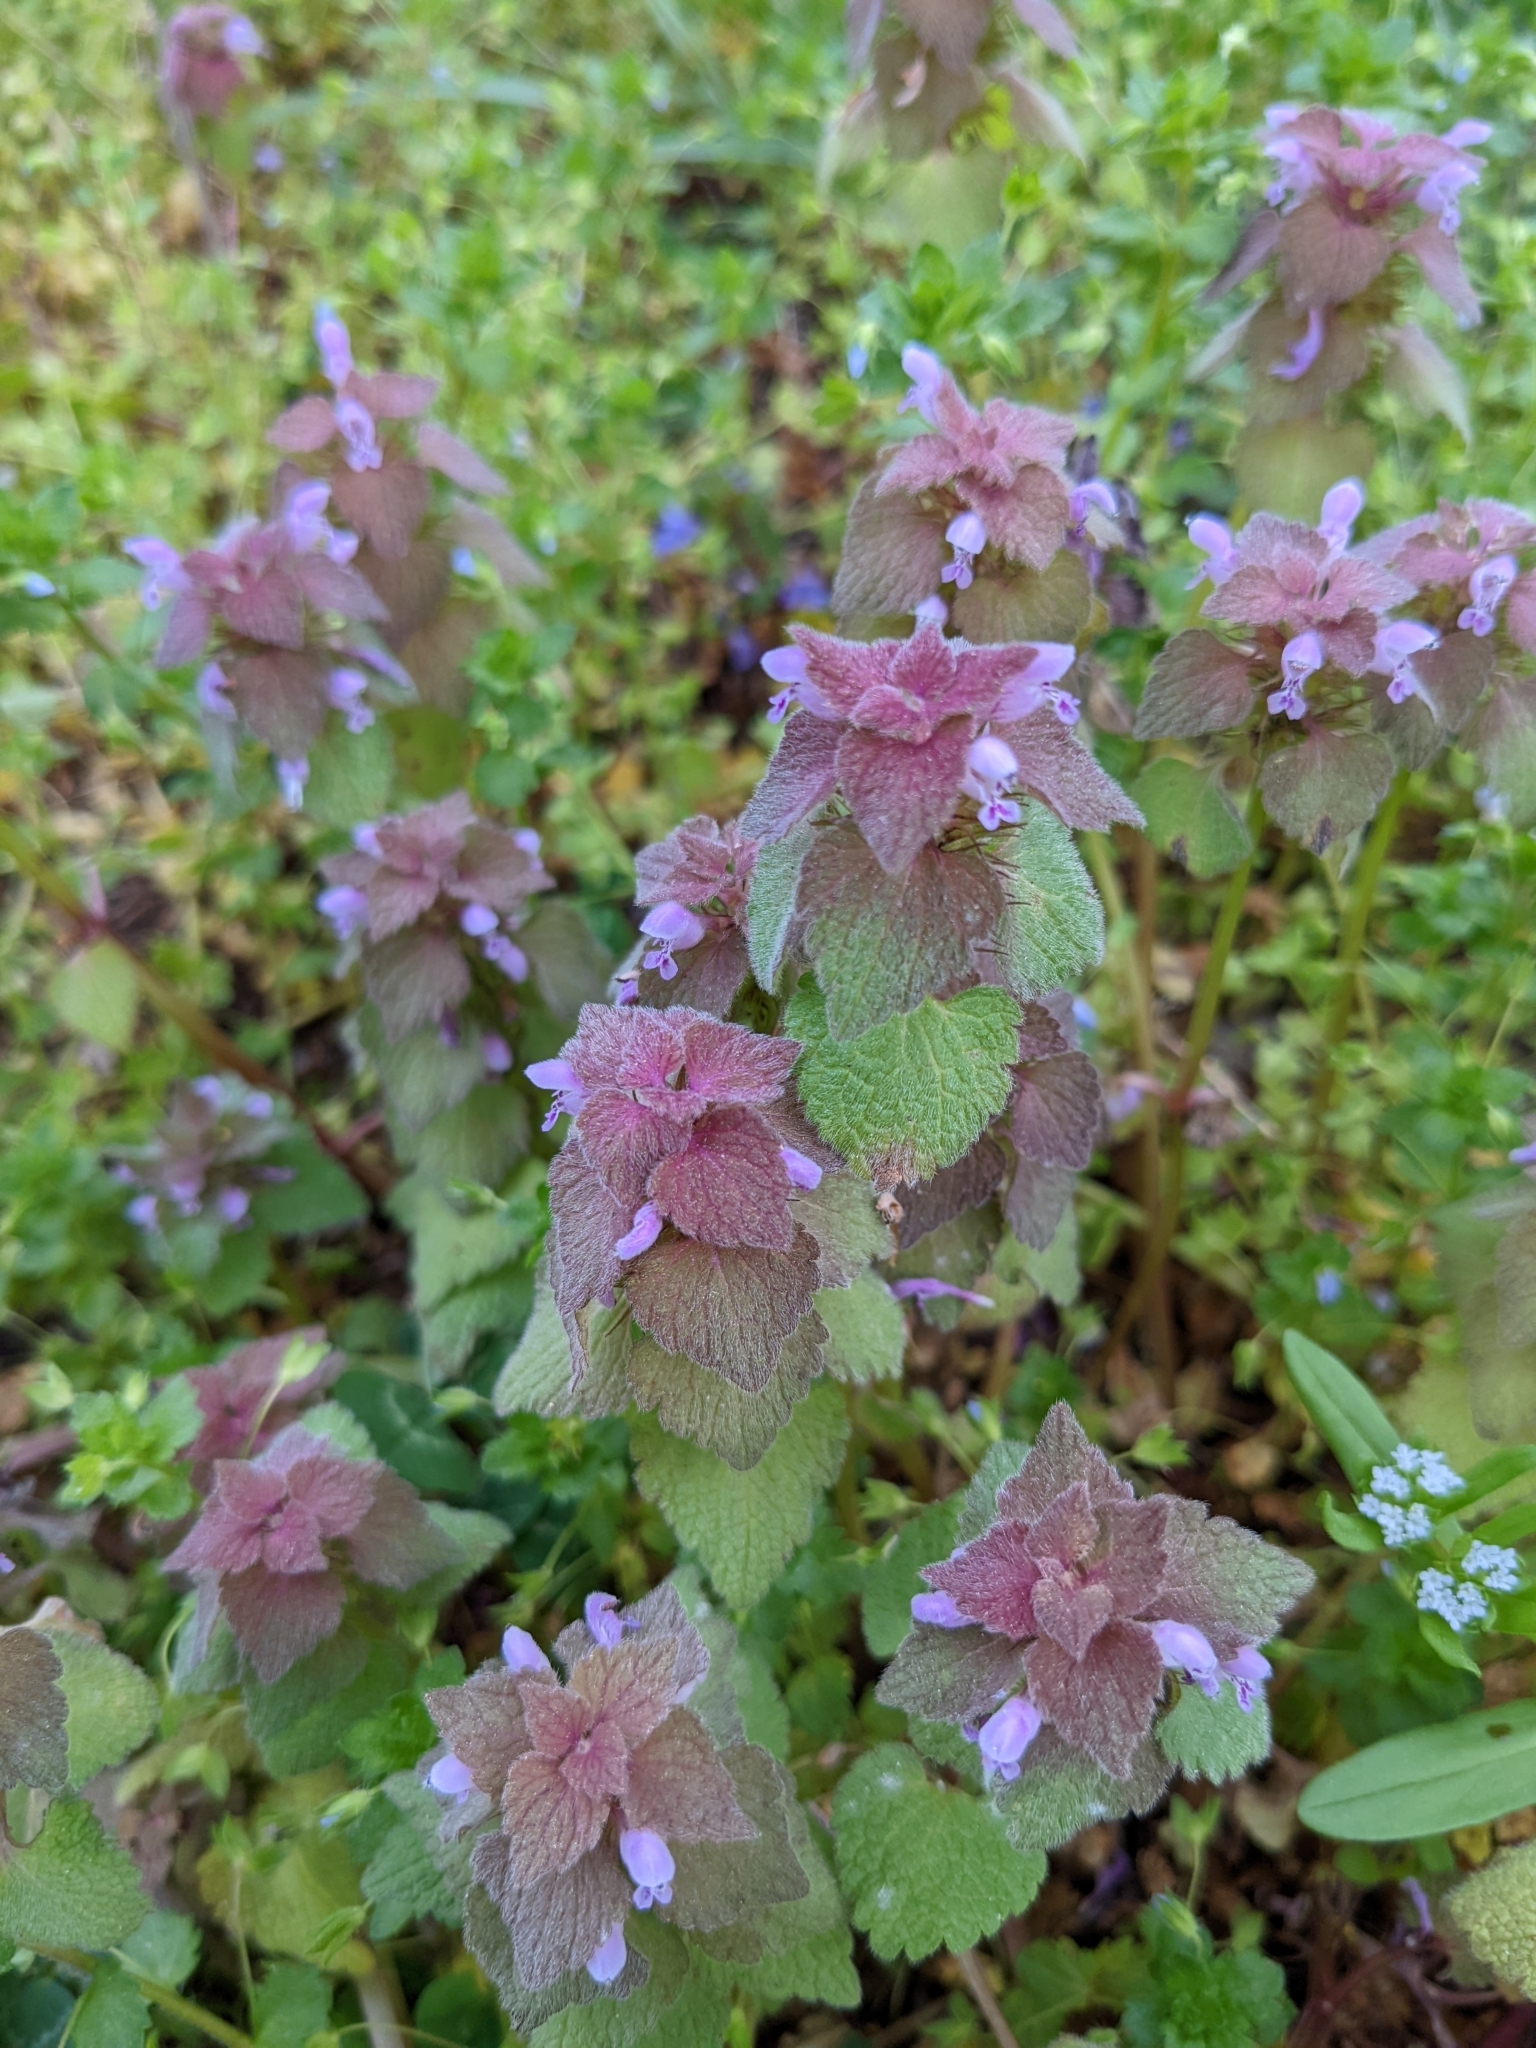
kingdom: Plantae
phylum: Tracheophyta
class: Magnoliopsida
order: Lamiales
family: Lamiaceae
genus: Lamium
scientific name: Lamium purpureum
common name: Red dead-nettle
